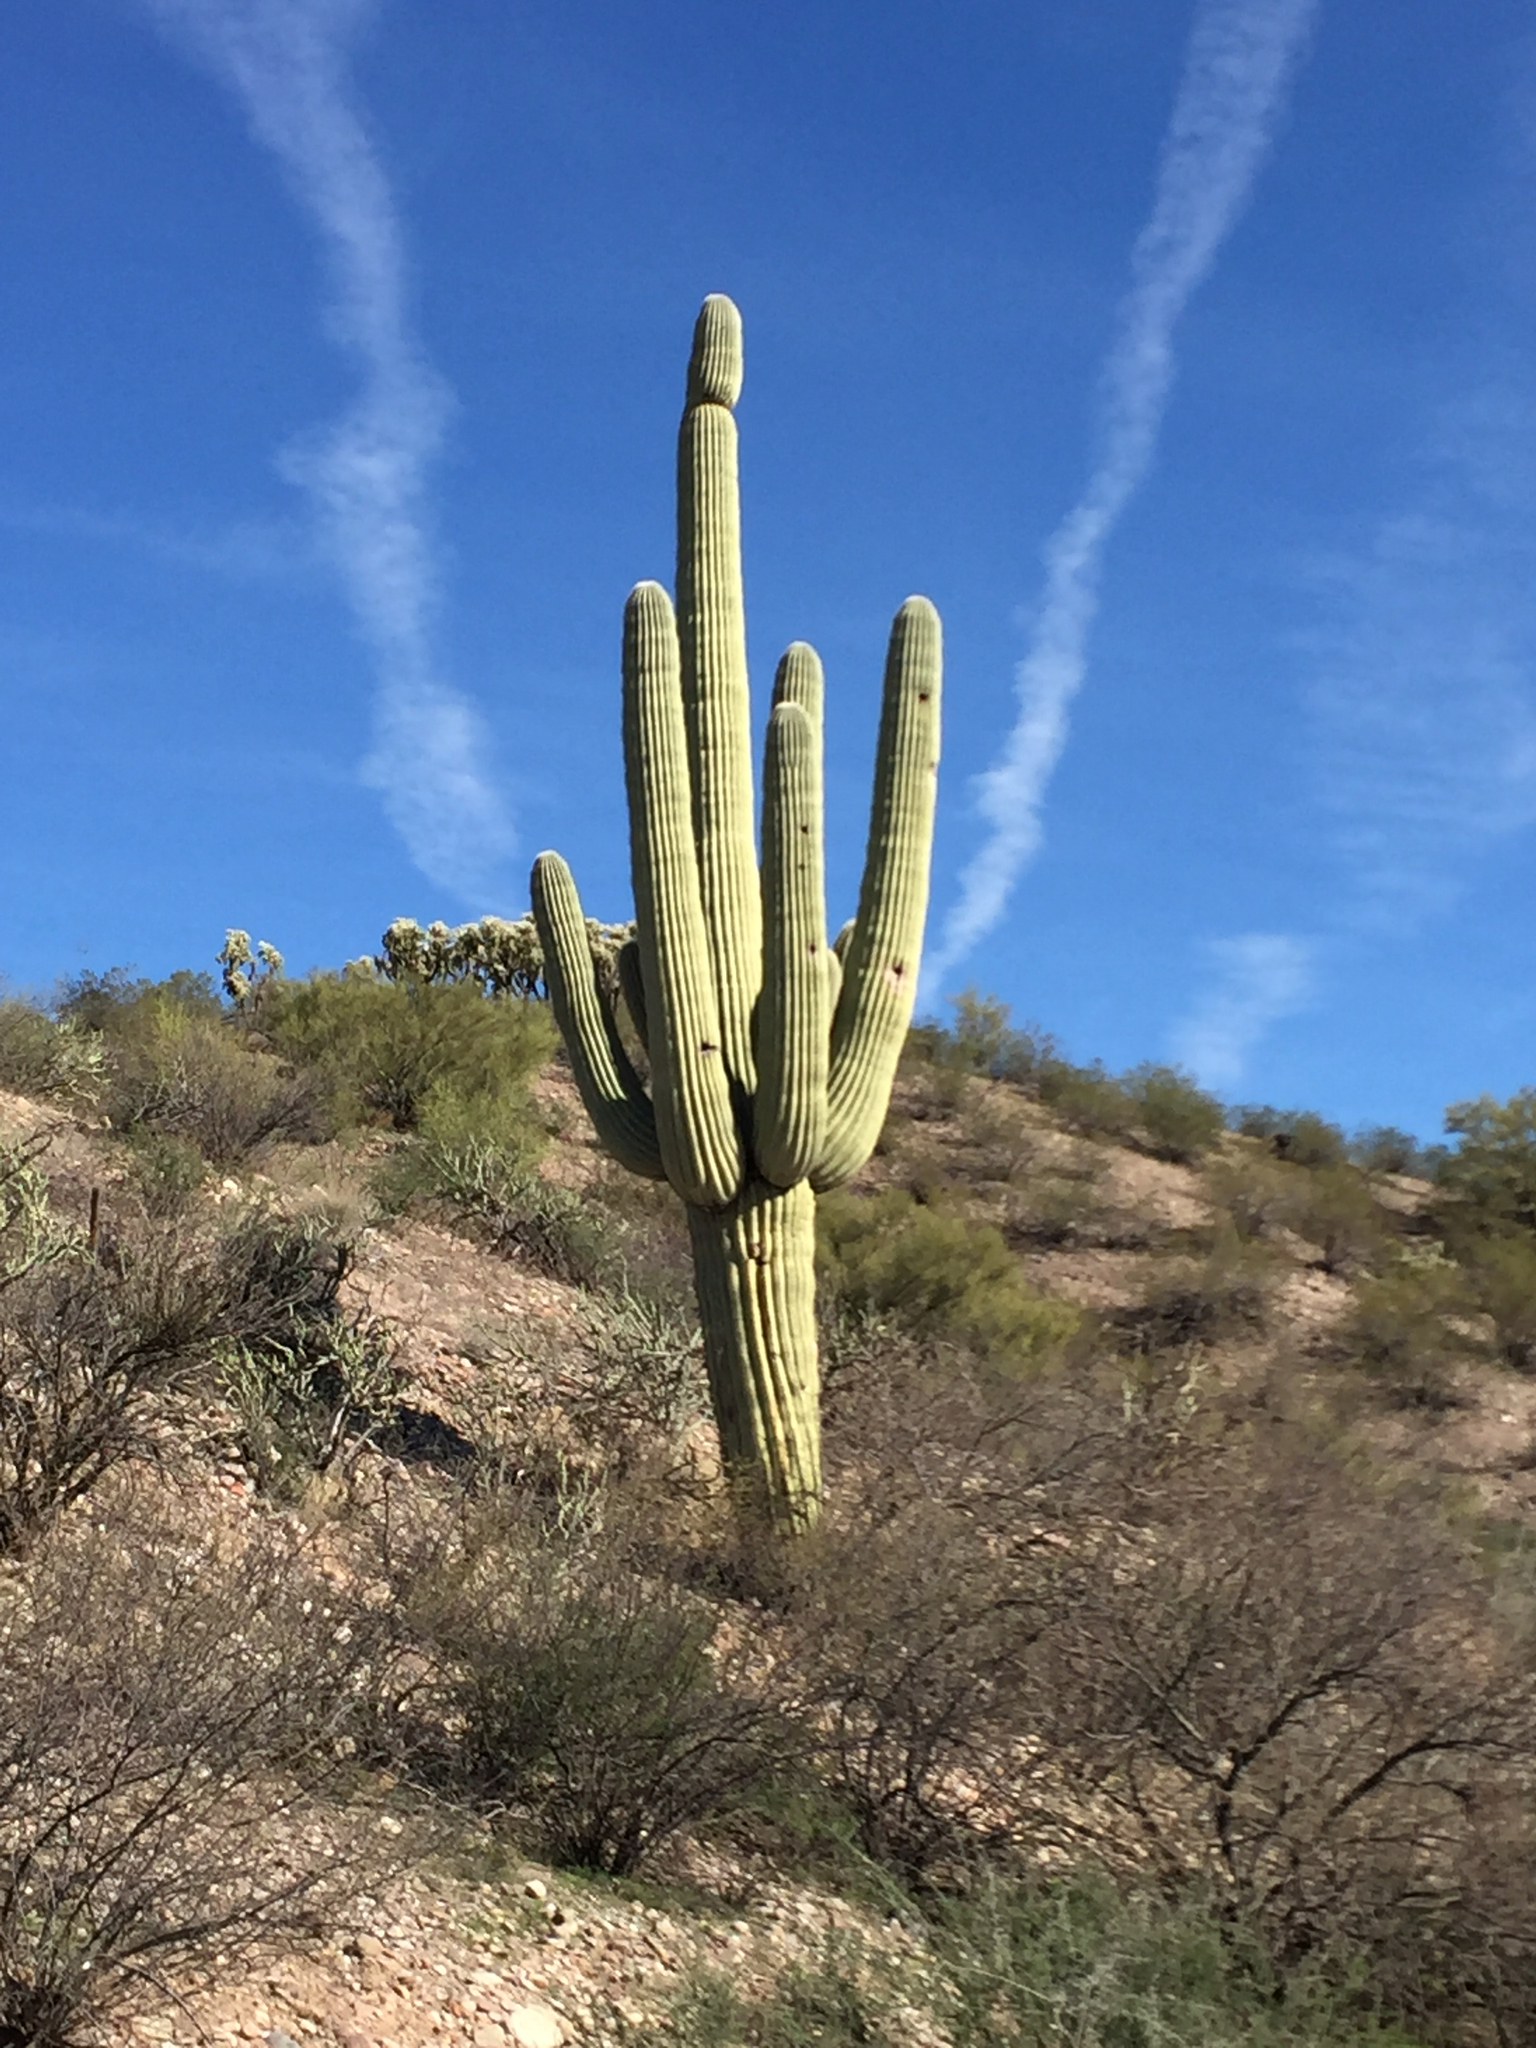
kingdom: Plantae
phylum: Tracheophyta
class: Magnoliopsida
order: Caryophyllales
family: Cactaceae
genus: Carnegiea
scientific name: Carnegiea gigantea
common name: Saguaro
